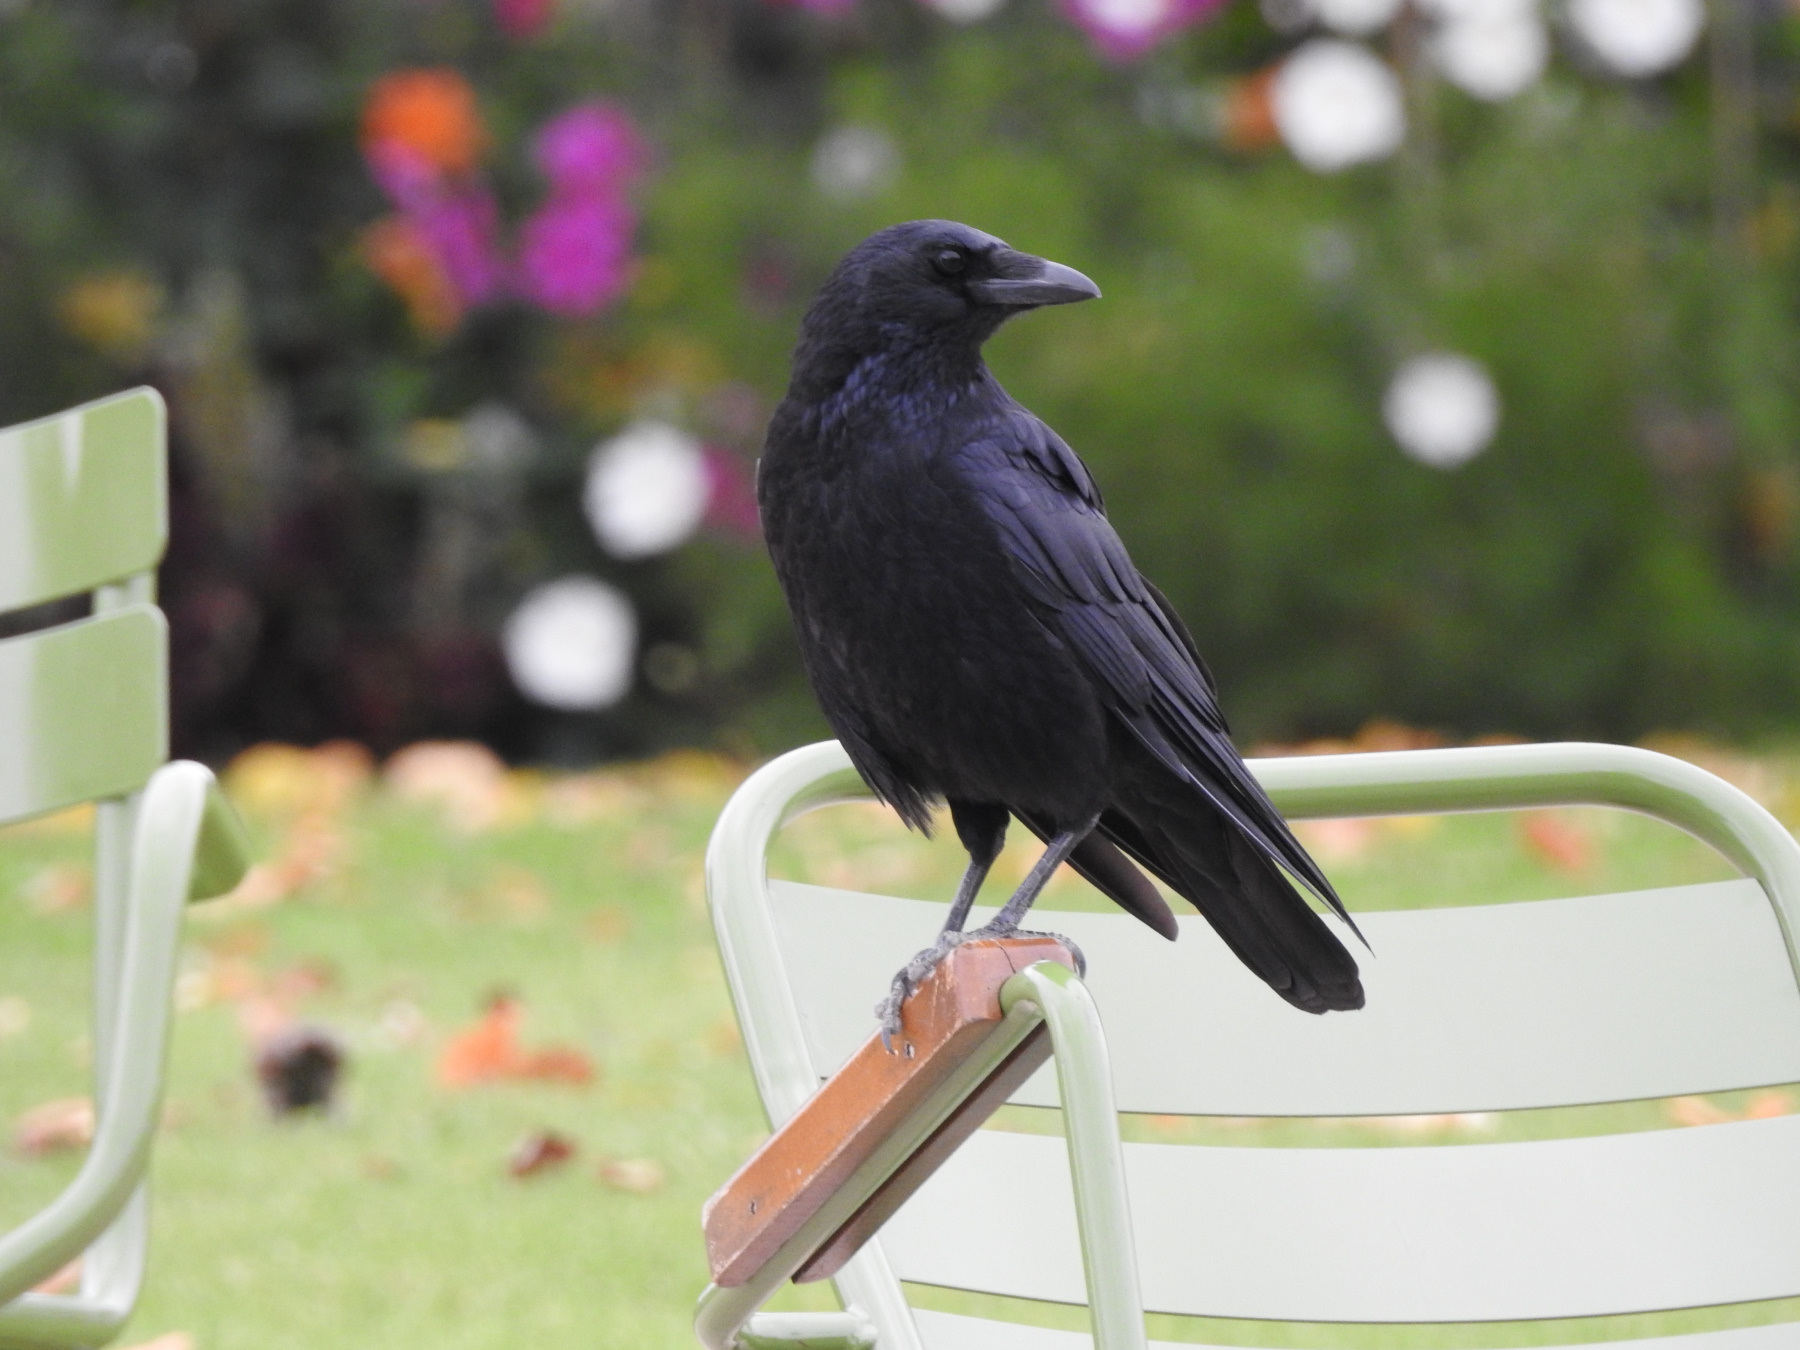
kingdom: Animalia
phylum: Chordata
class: Aves
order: Passeriformes
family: Corvidae
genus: Corvus
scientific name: Corvus corone
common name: Carrion crow
